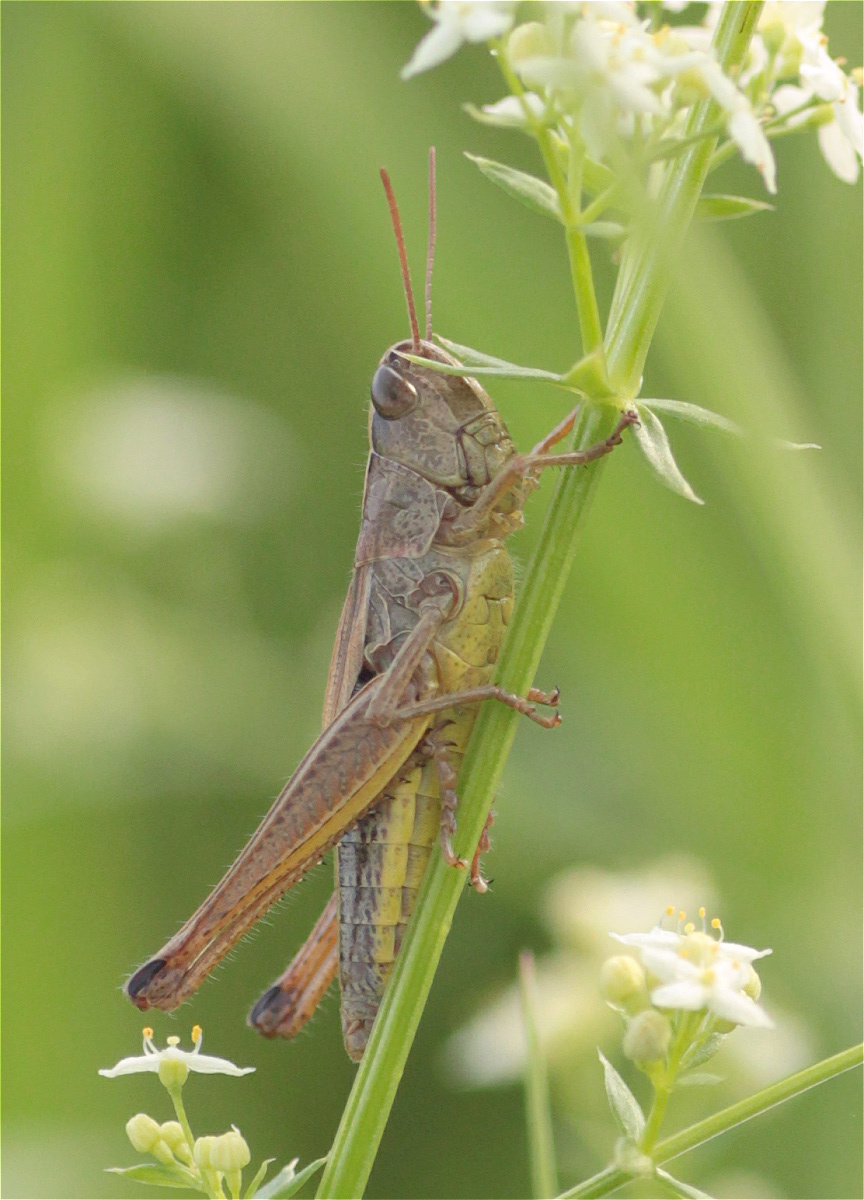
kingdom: Animalia
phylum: Arthropoda
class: Insecta
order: Orthoptera
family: Acrididae
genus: Pseudochorthippus
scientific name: Pseudochorthippus parallelus
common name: Meadow grasshopper
